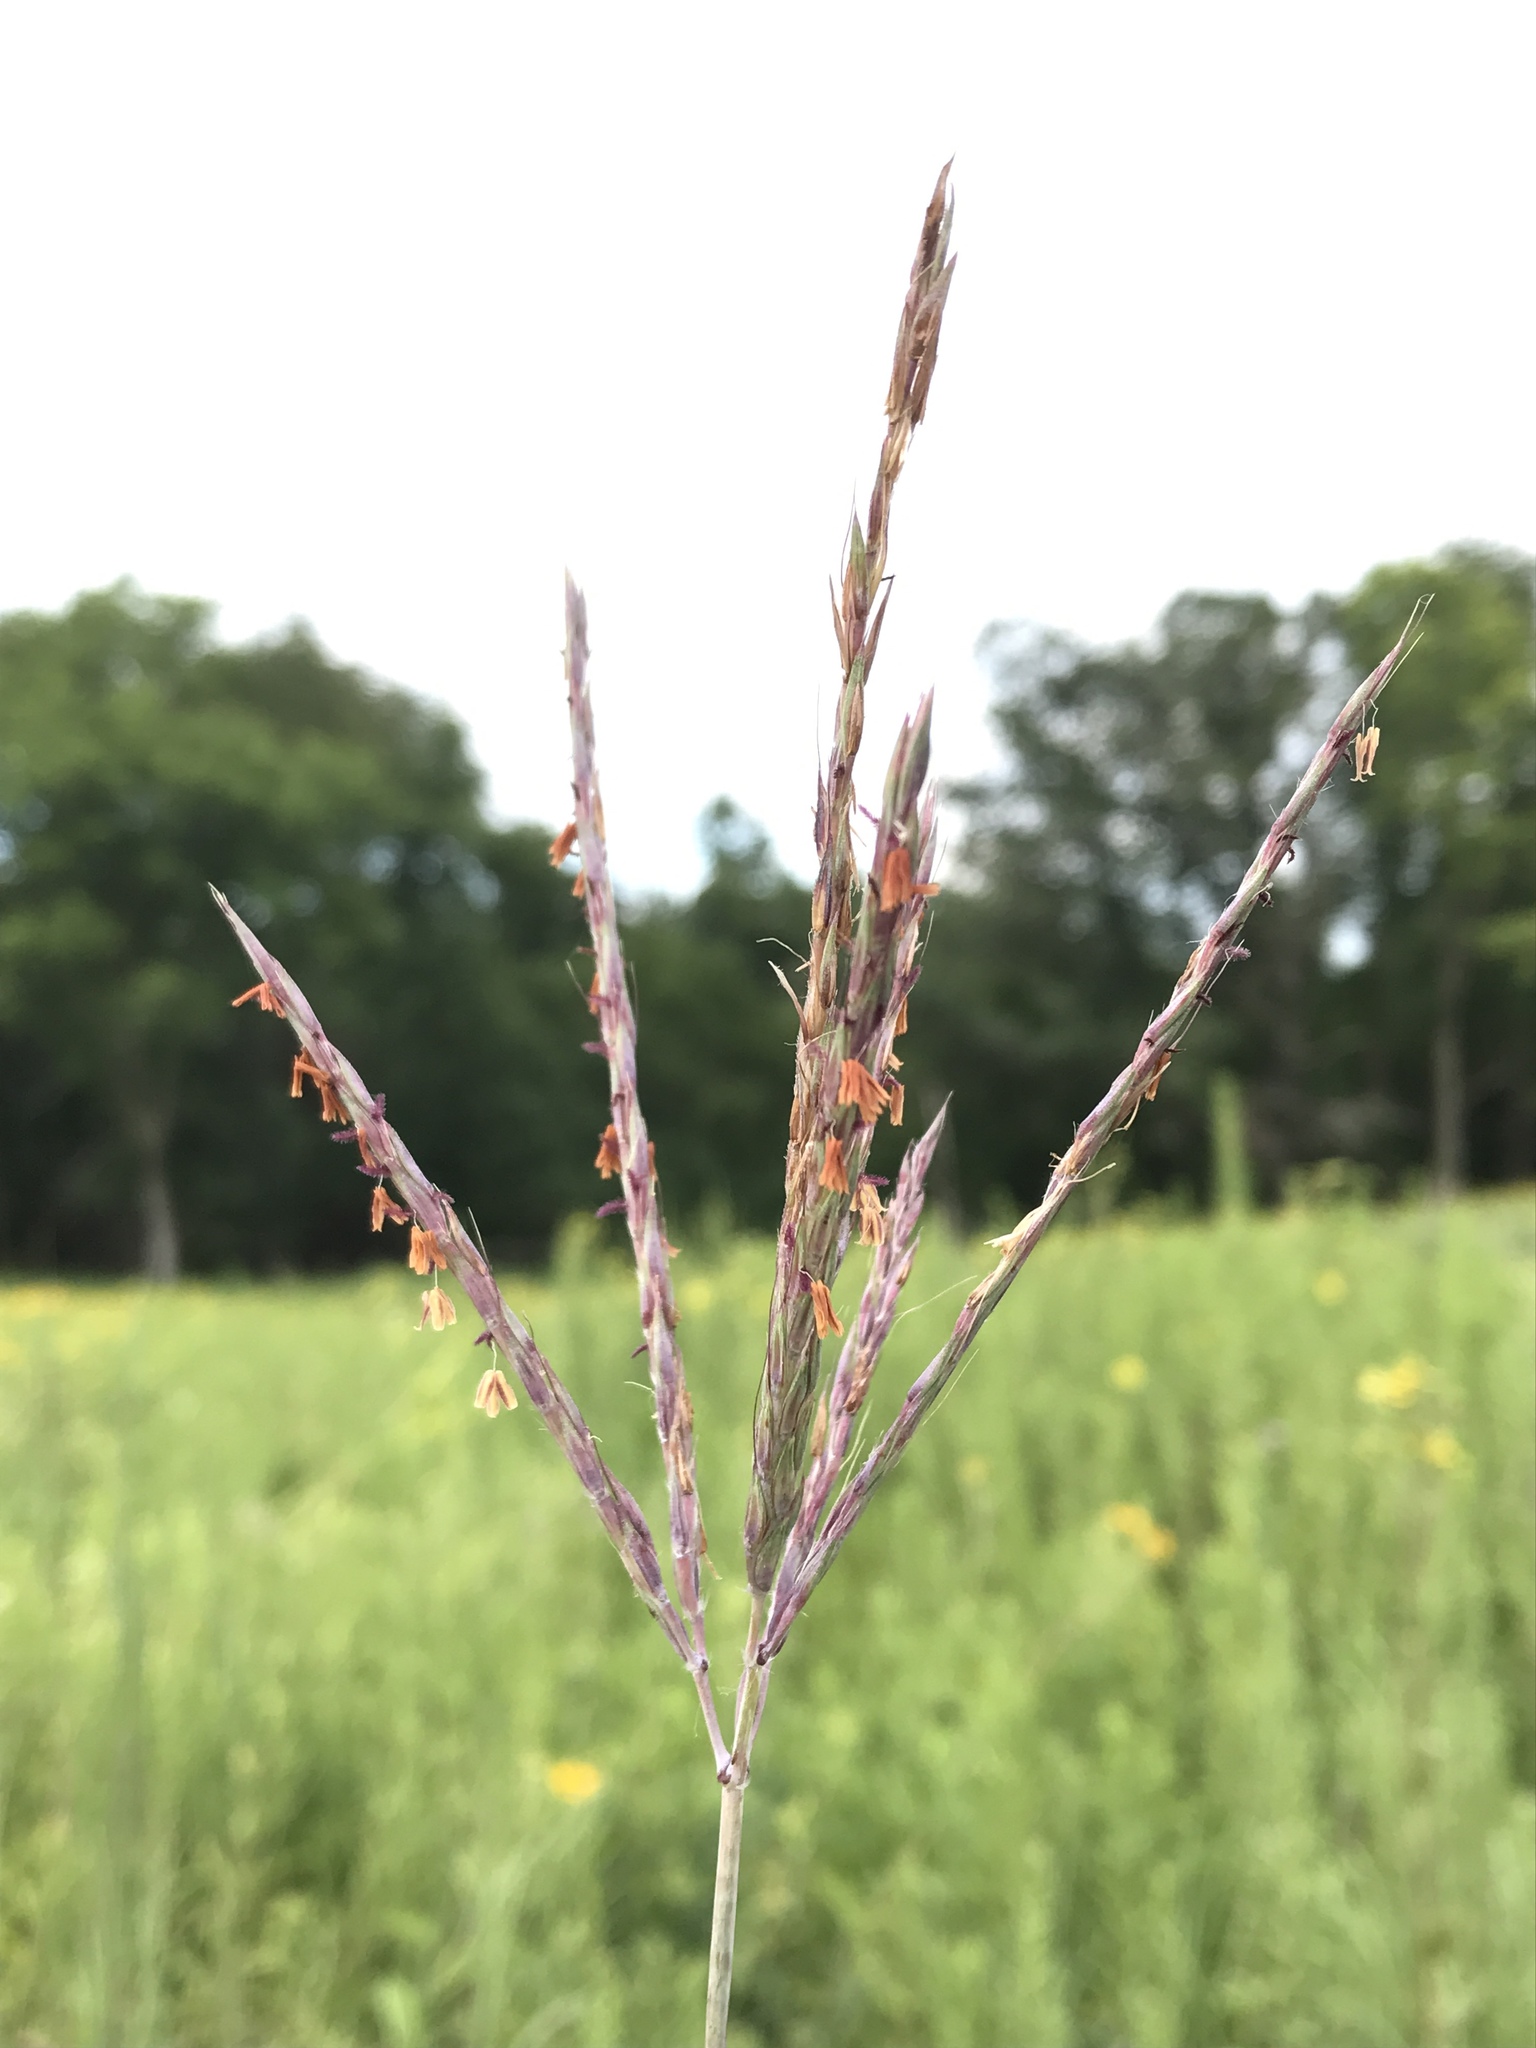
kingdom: Plantae
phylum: Tracheophyta
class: Liliopsida
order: Poales
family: Poaceae
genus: Andropogon
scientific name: Andropogon gerardi
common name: Big bluestem
